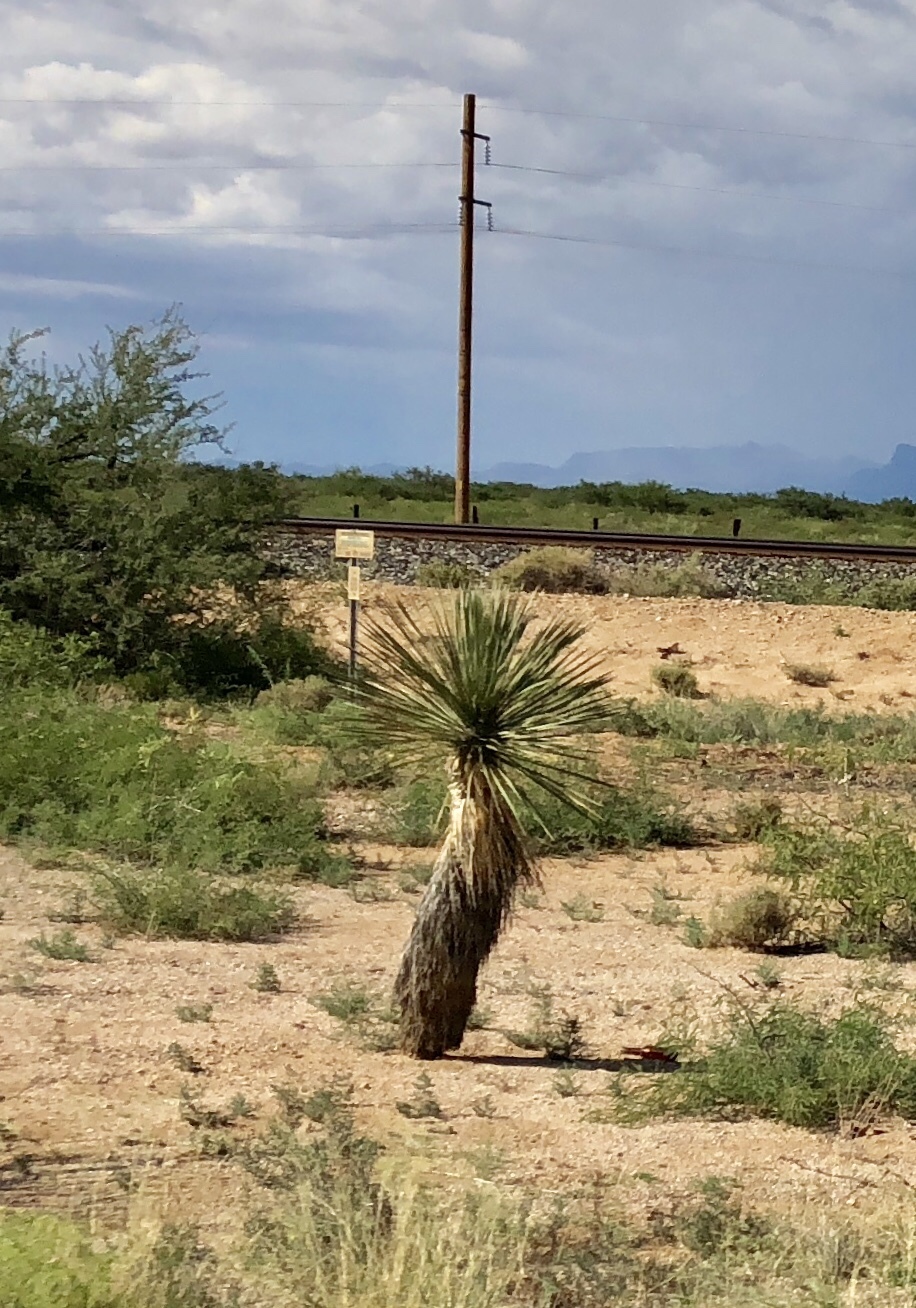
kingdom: Plantae
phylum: Tracheophyta
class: Liliopsida
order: Asparagales
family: Asparagaceae
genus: Yucca
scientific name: Yucca elata
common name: Palmella
